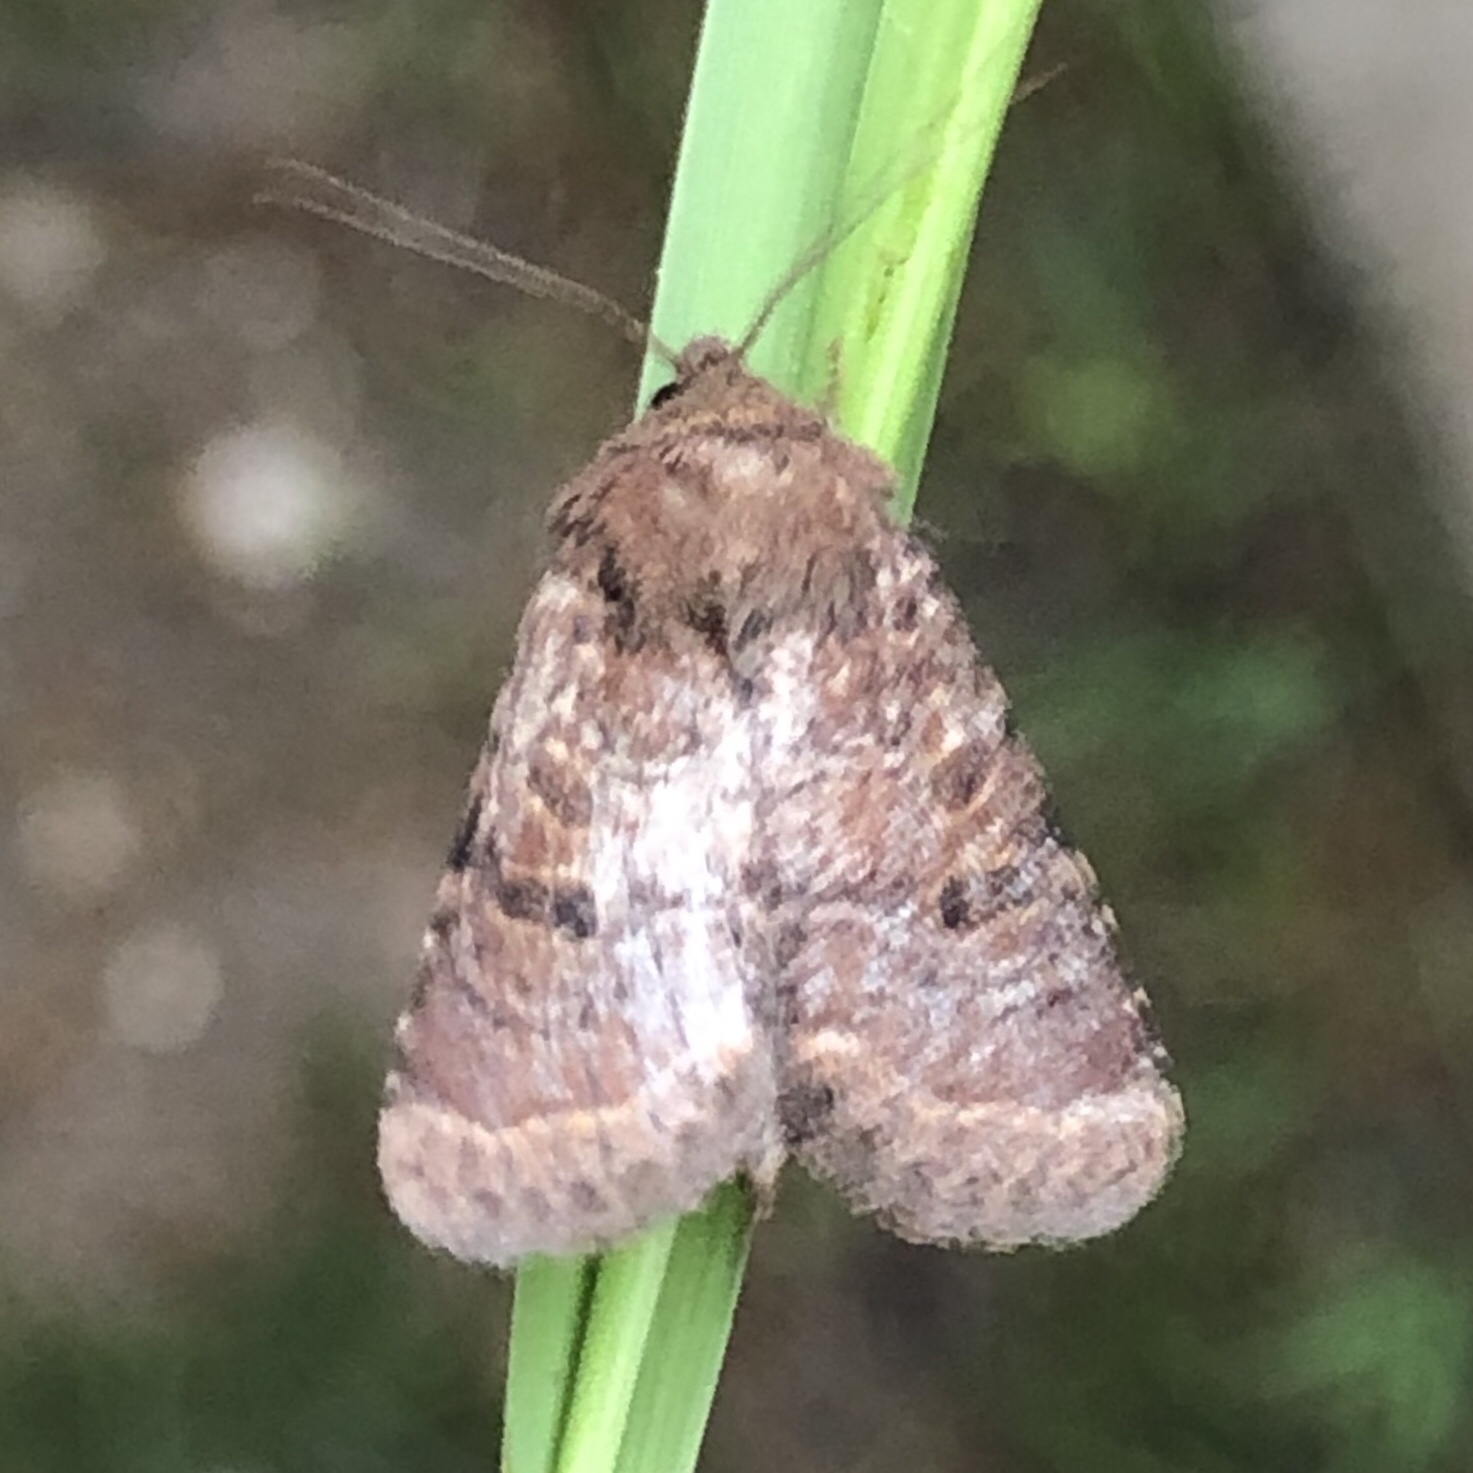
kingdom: Animalia
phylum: Arthropoda
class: Insecta
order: Lepidoptera
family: Noctuidae
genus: Trichopolia
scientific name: Trichopolia
